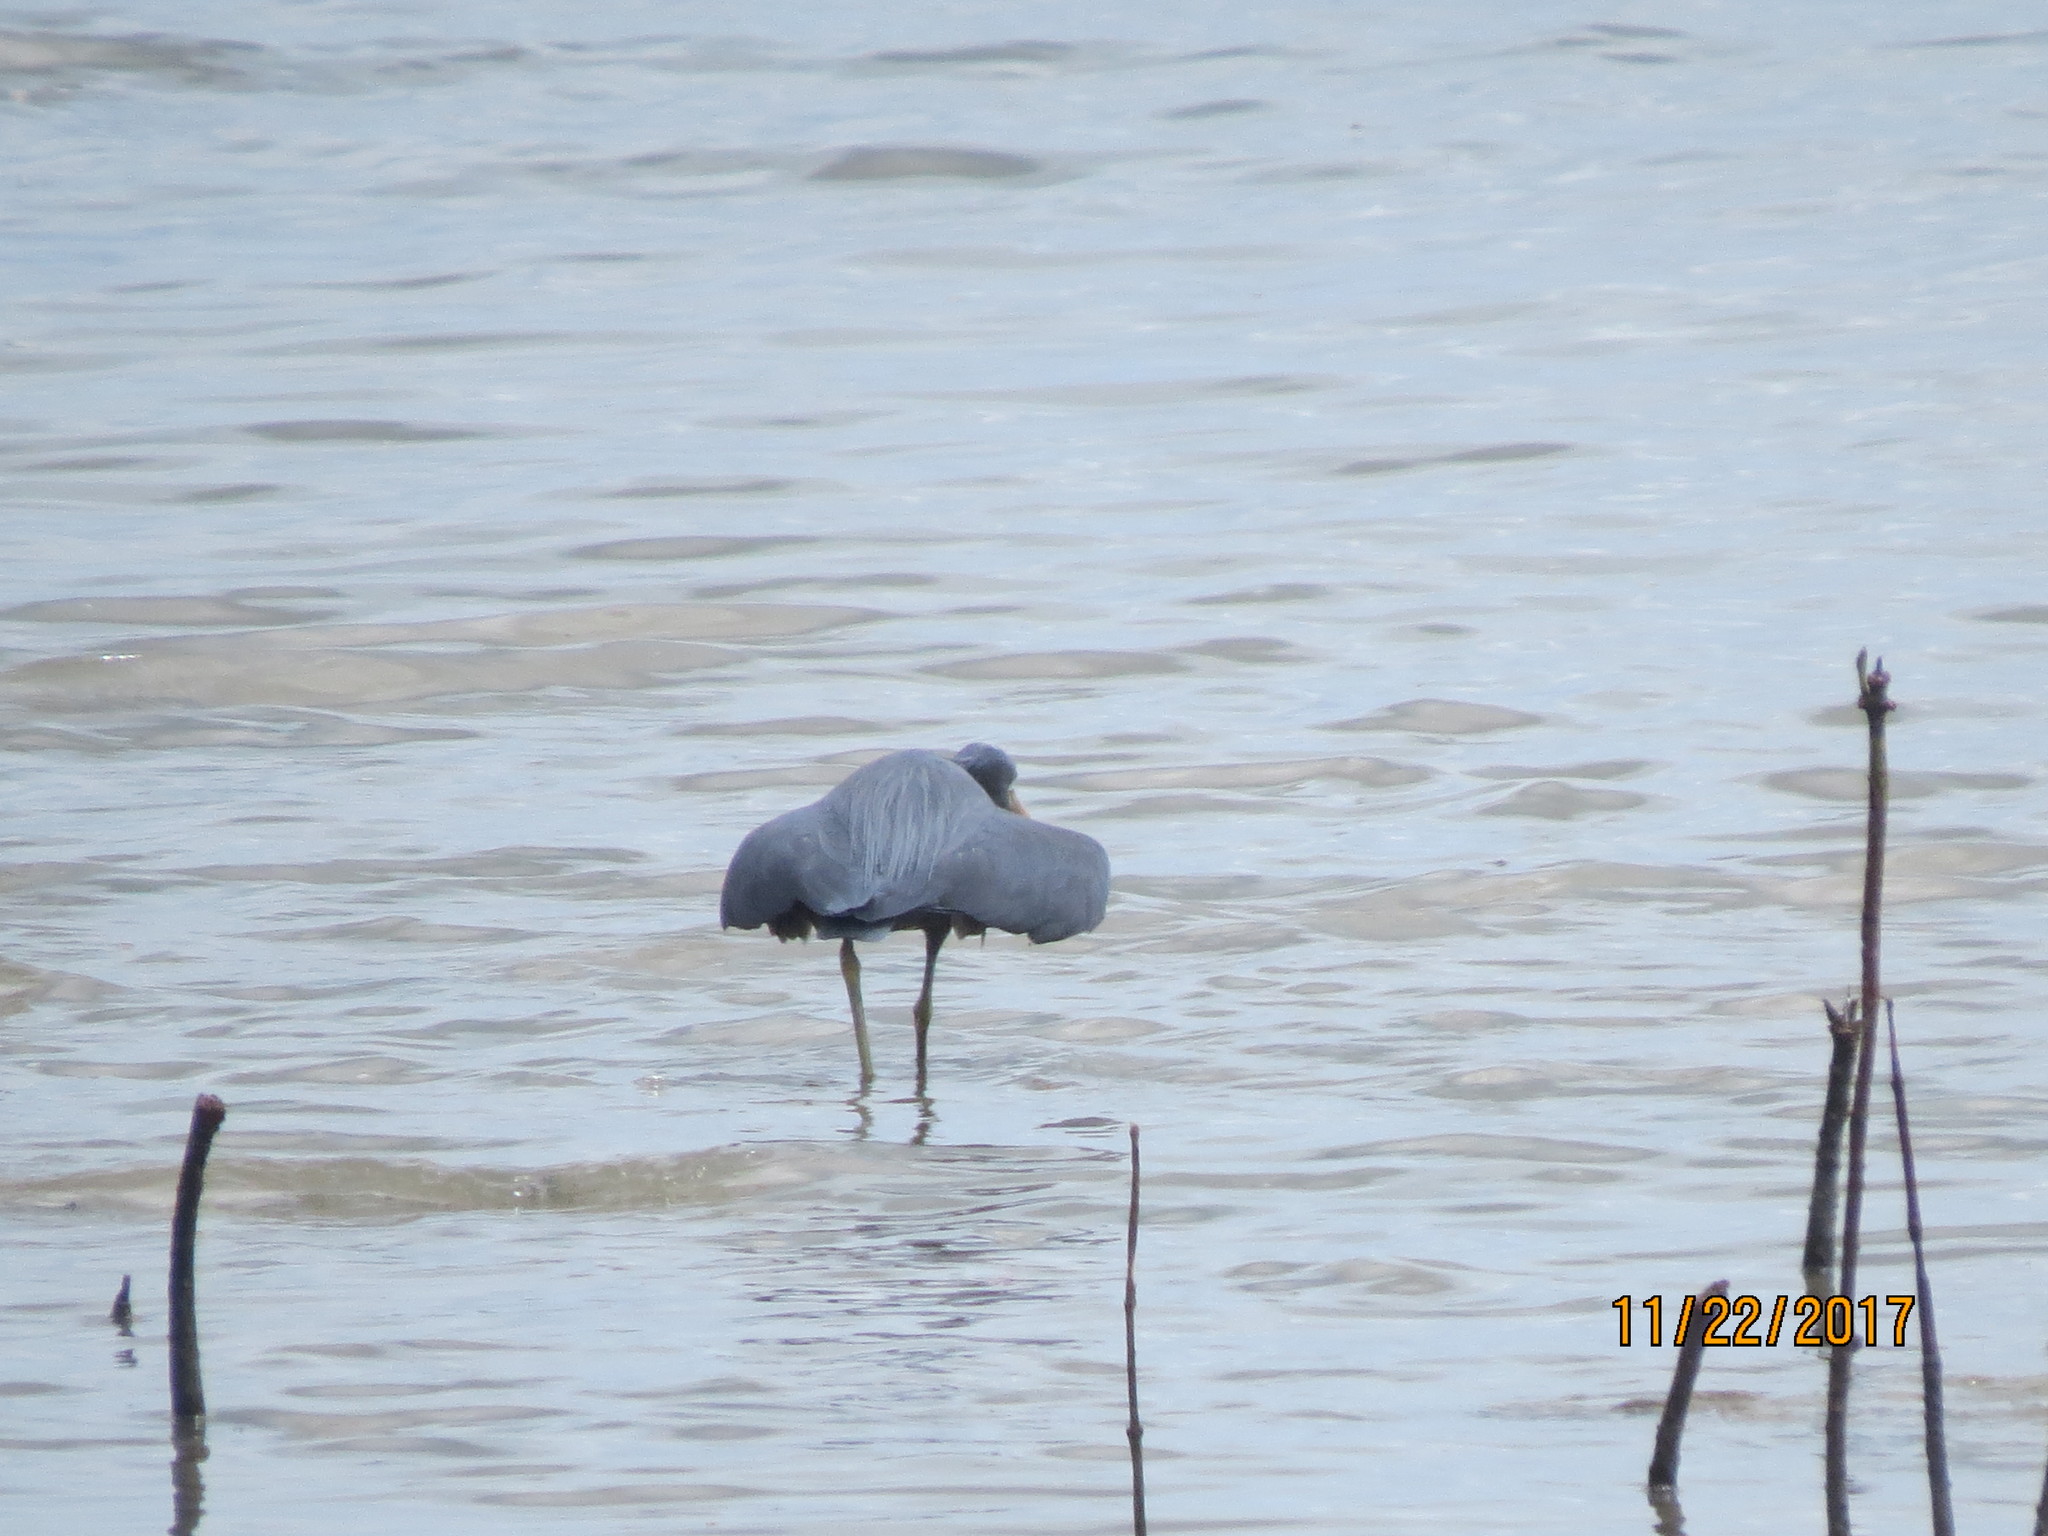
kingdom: Animalia
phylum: Chordata
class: Aves
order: Pelecaniformes
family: Ardeidae
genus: Egretta
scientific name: Egretta sacra
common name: Pacific reef heron
